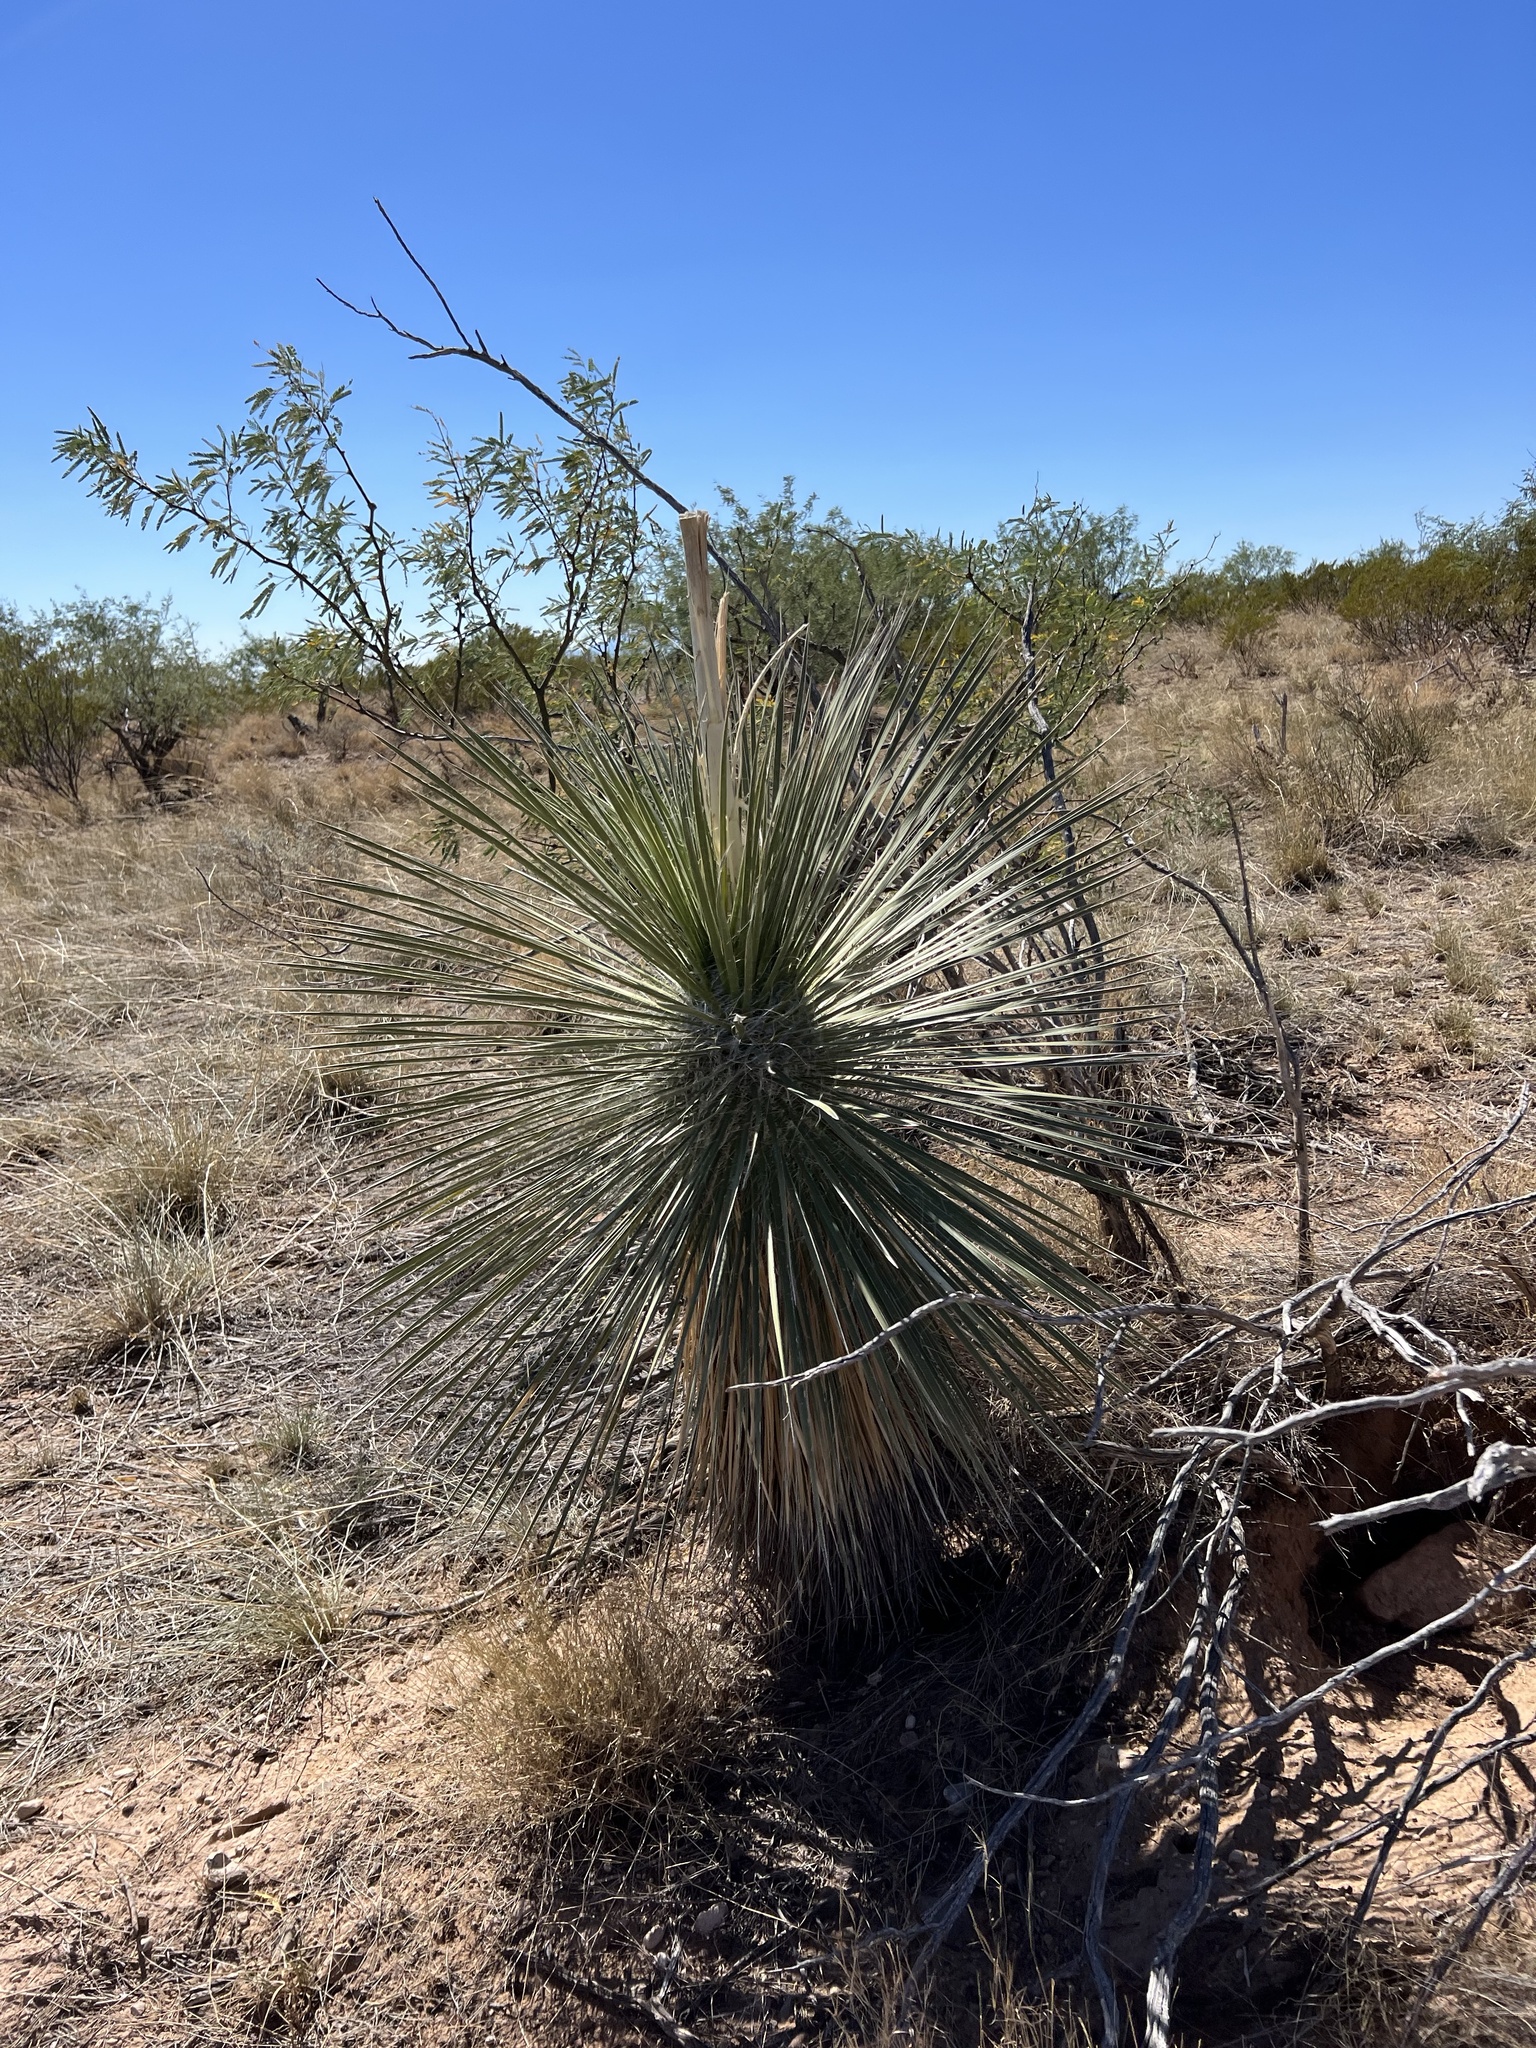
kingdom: Plantae
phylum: Tracheophyta
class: Liliopsida
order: Asparagales
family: Asparagaceae
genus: Yucca
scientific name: Yucca elata
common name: Palmella
